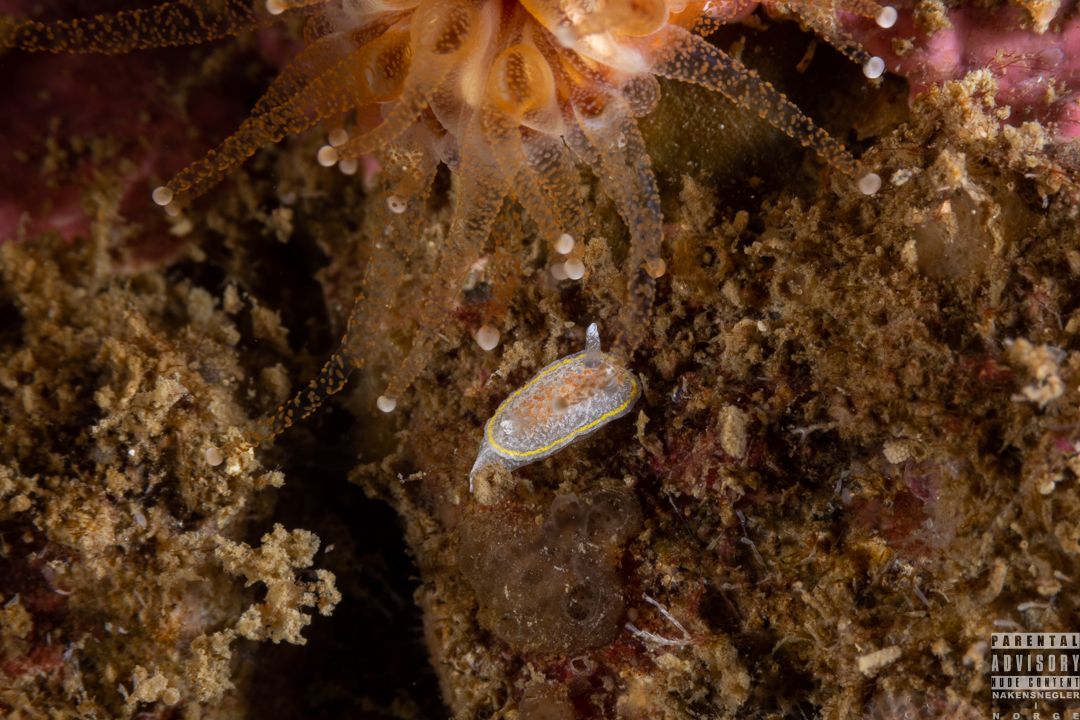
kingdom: Animalia
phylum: Mollusca
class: Gastropoda
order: Nudibranchia
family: Calycidorididae
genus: Diaphorodoris
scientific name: Diaphorodoris luteocincta
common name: Fried egg nudibranch
